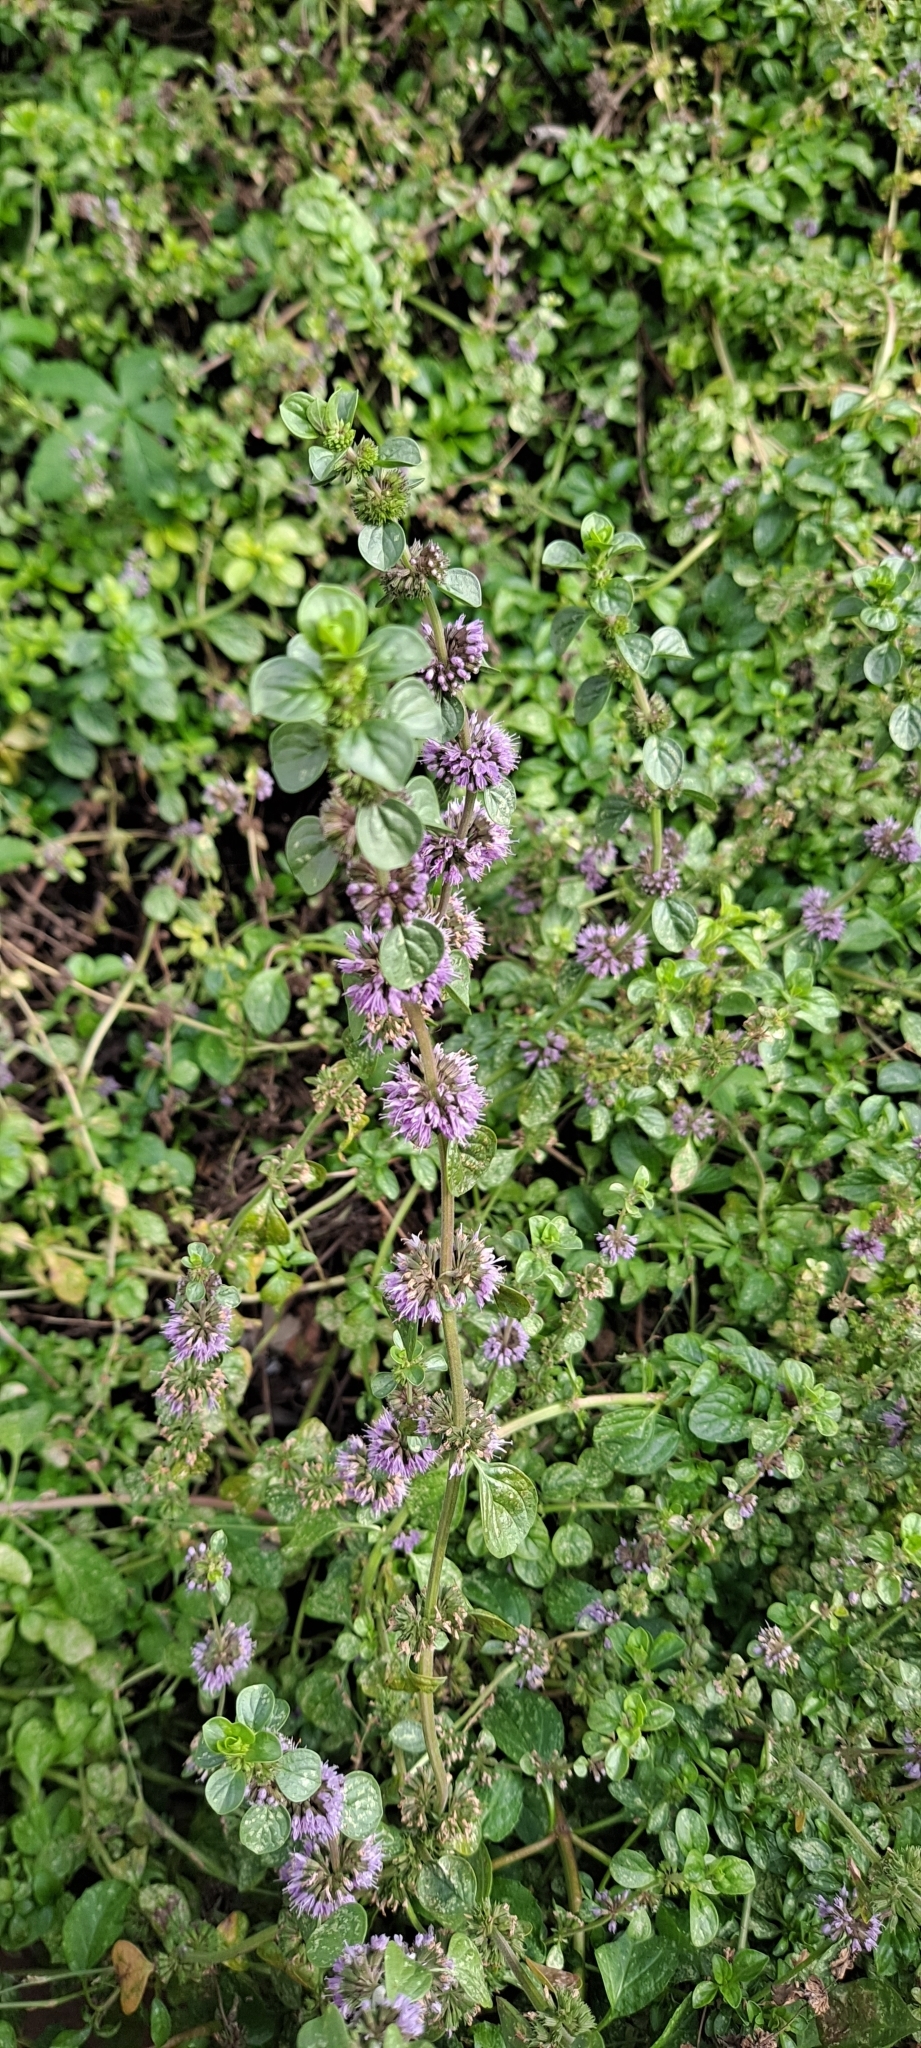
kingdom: Plantae
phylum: Tracheophyta
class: Magnoliopsida
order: Lamiales
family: Lamiaceae
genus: Mentha
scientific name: Mentha pulegium
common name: Pennyroyal
